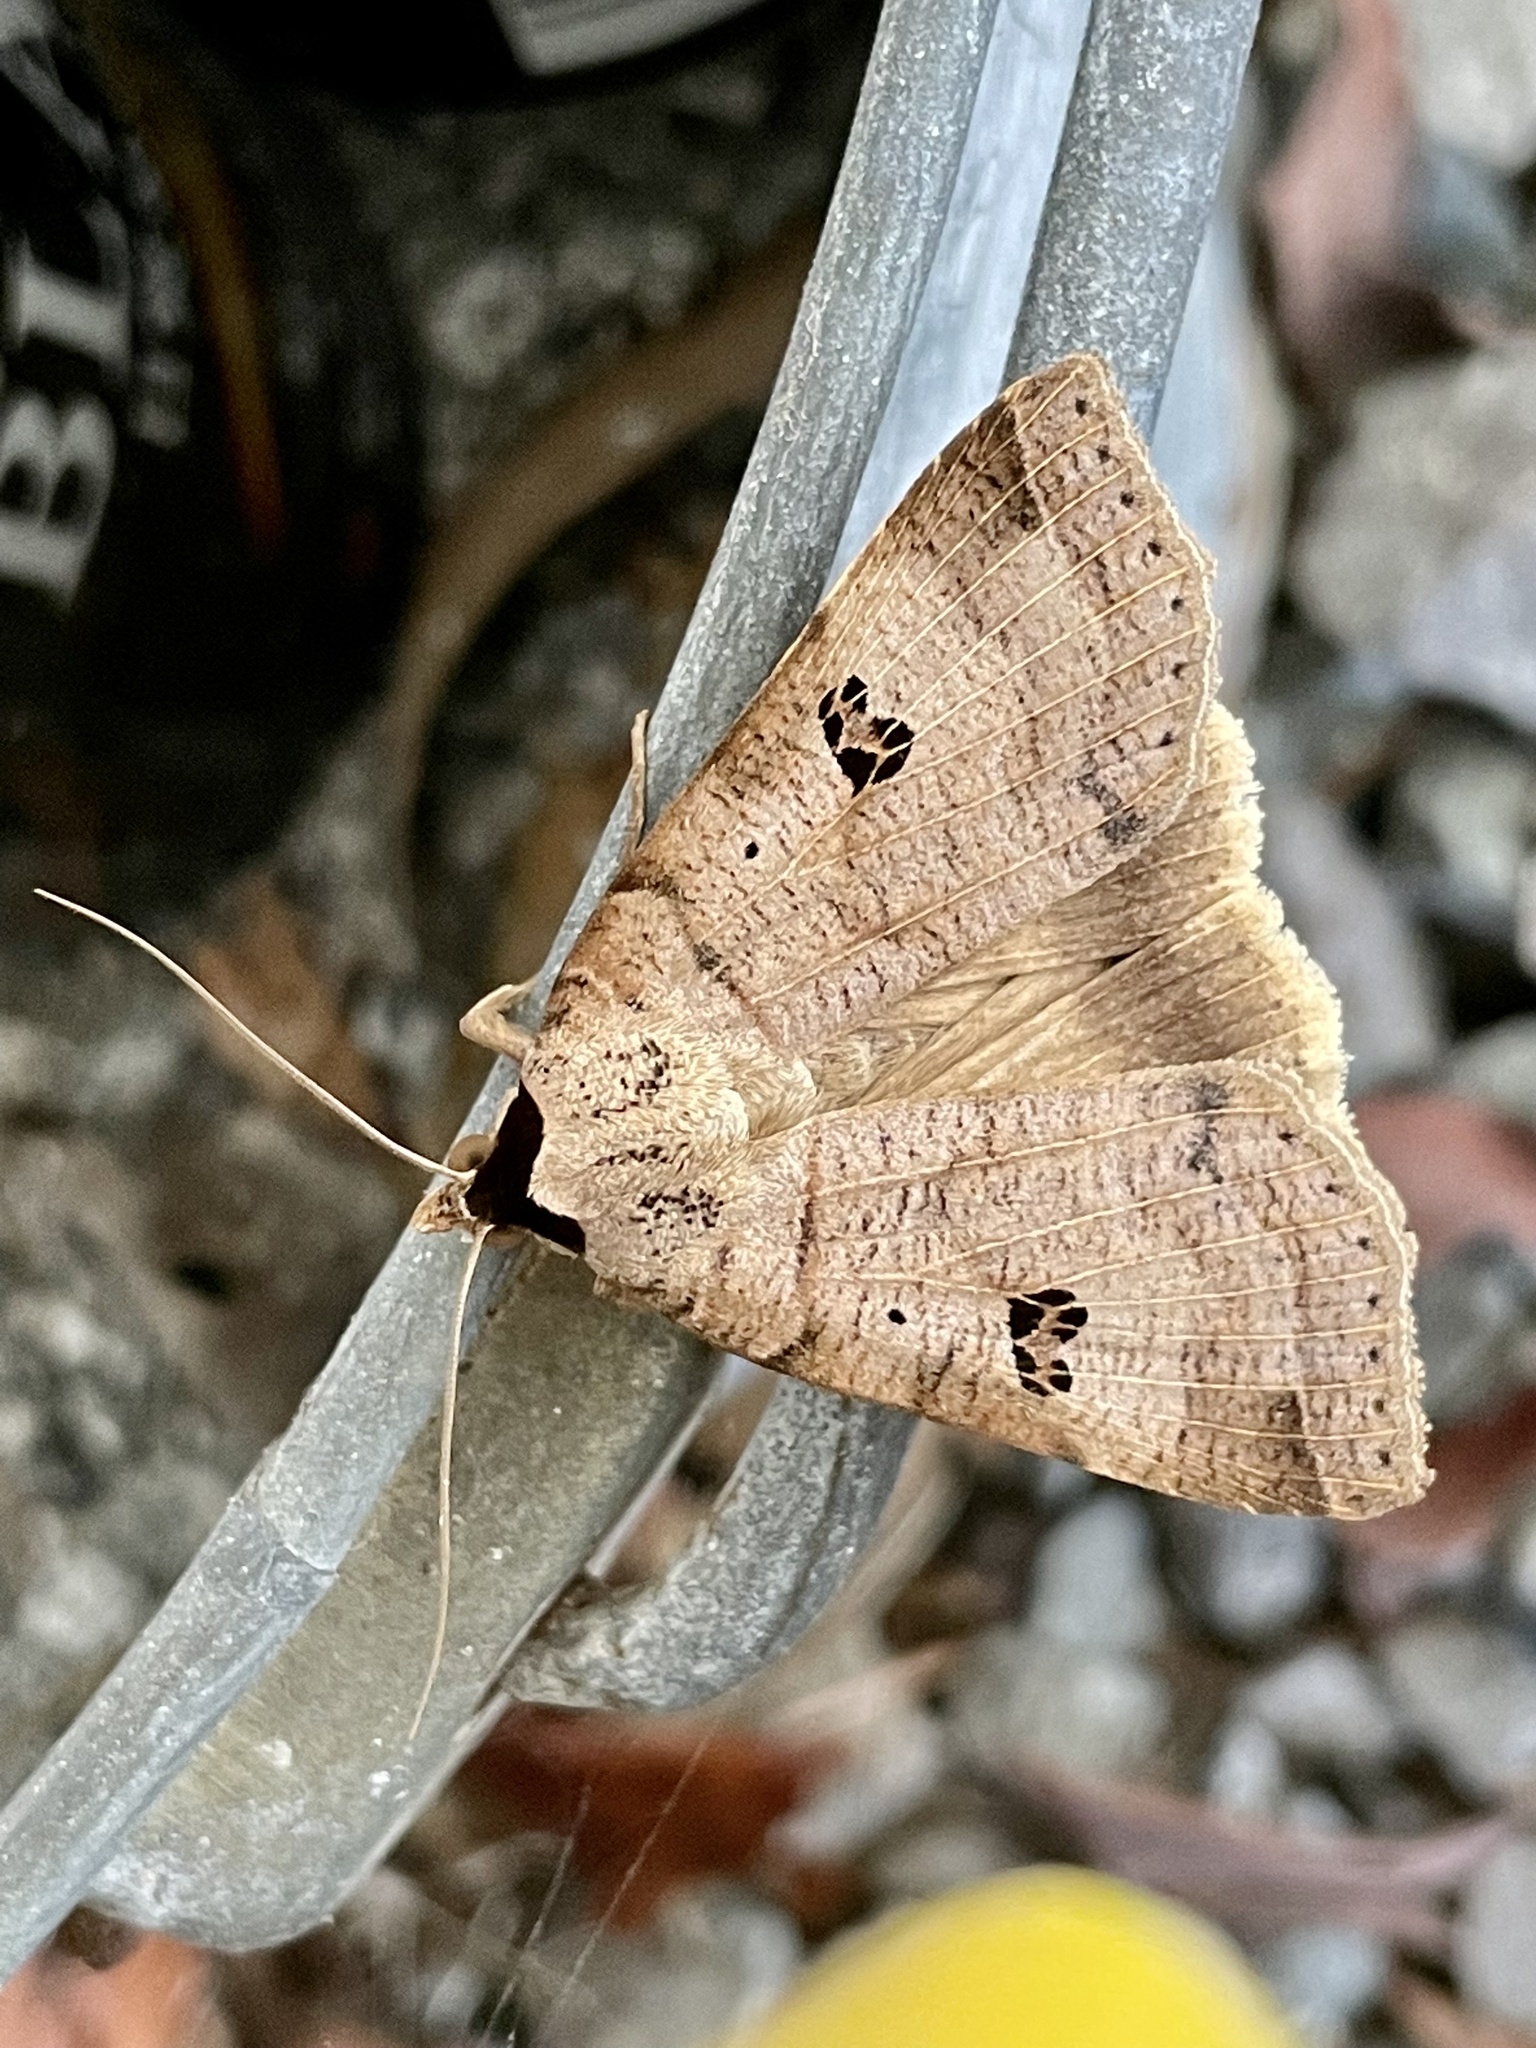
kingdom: Animalia
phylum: Arthropoda
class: Insecta
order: Lepidoptera
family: Erebidae
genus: Lygephila
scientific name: Lygephila maxima
